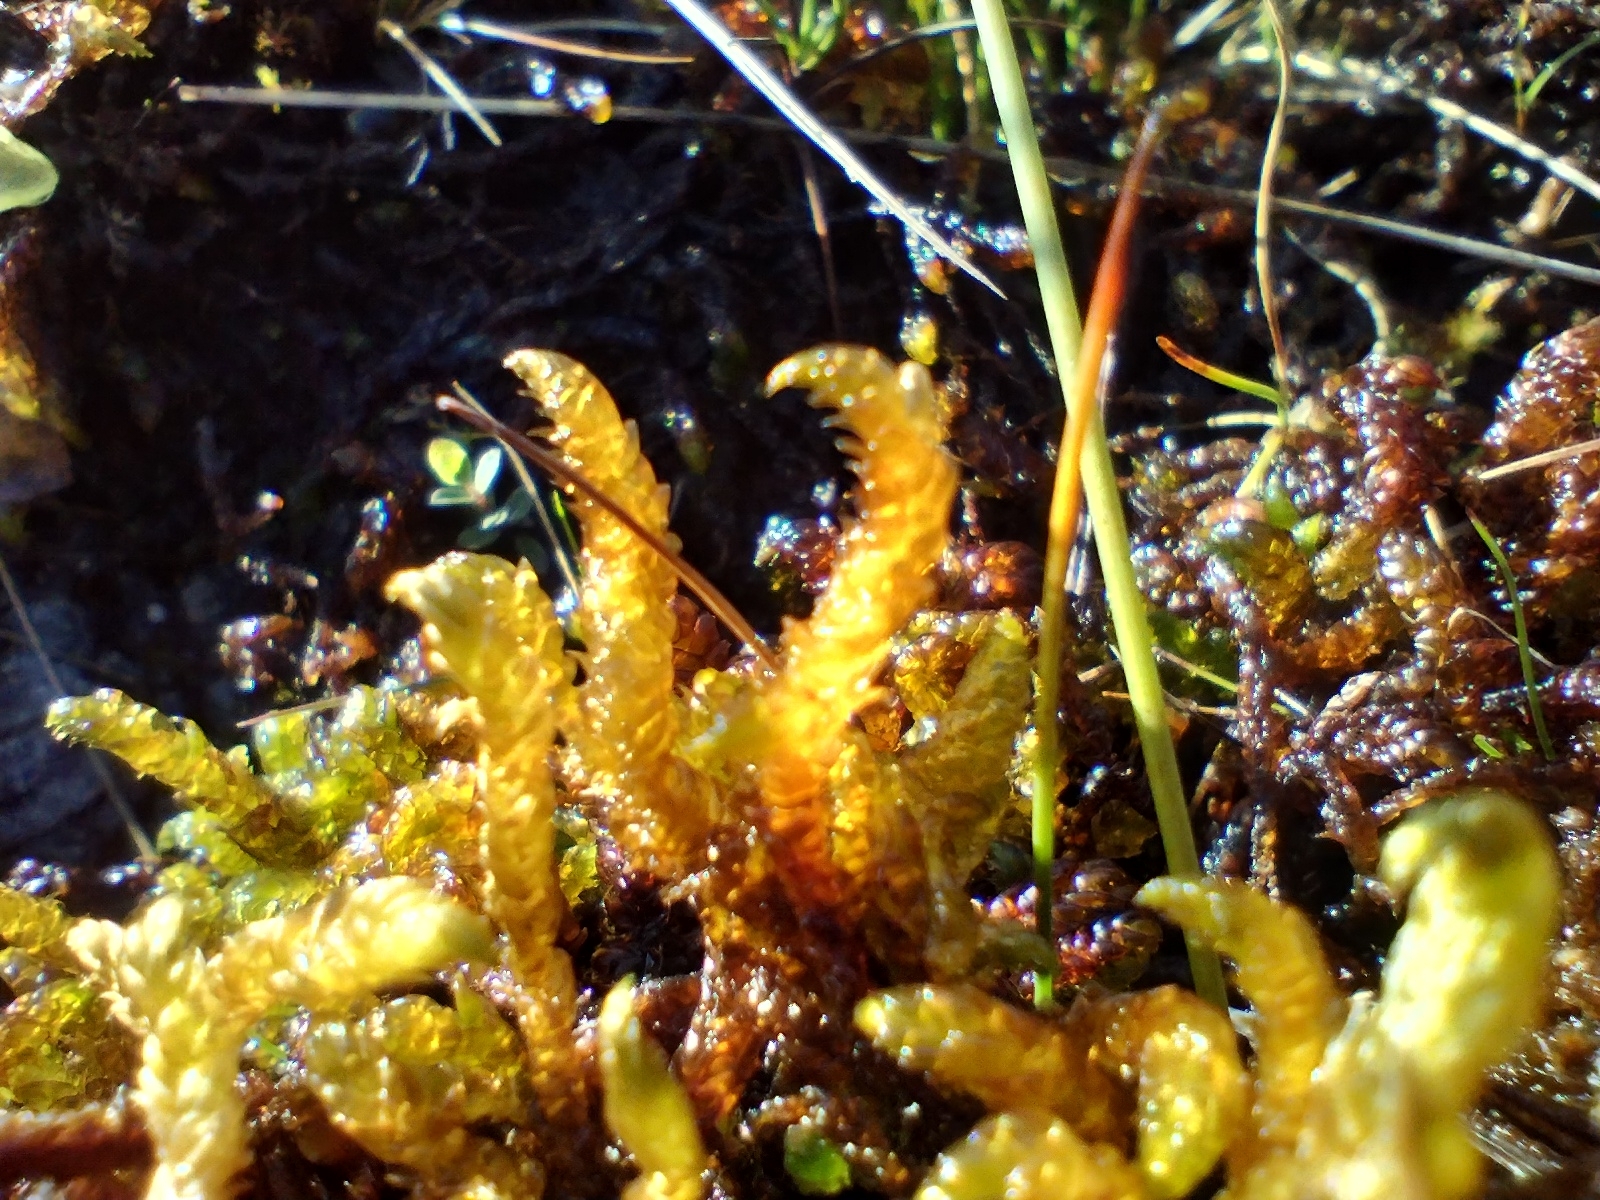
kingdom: Plantae
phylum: Bryophyta
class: Bryopsida
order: Hypnales
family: Scorpidiaceae
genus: Scorpidium
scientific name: Scorpidium scorpioides
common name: Hooked scorpion moss
